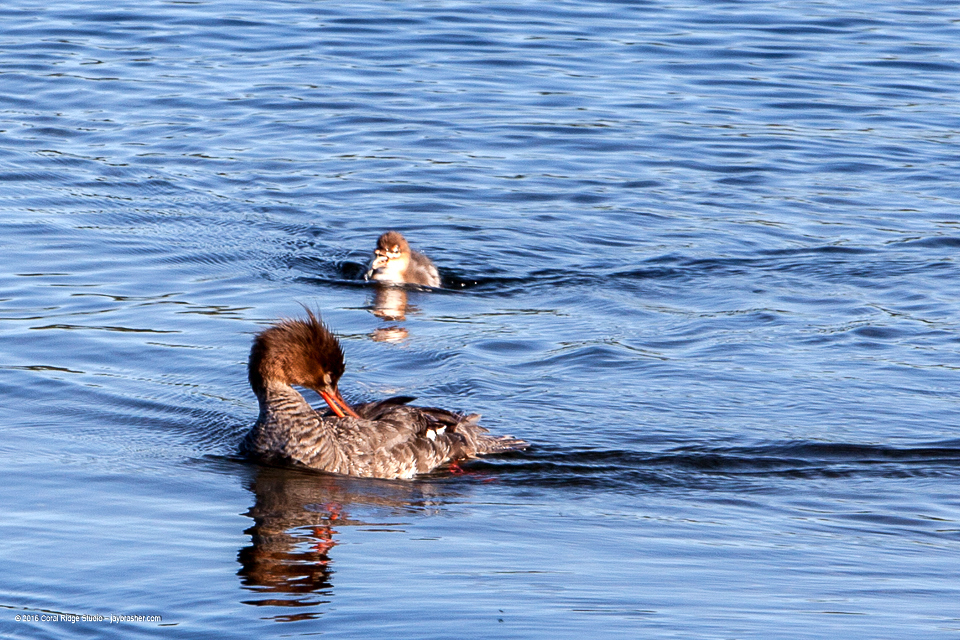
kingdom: Animalia
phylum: Chordata
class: Aves
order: Anseriformes
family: Anatidae
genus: Mergus
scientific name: Mergus serrator
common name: Red-breasted merganser
